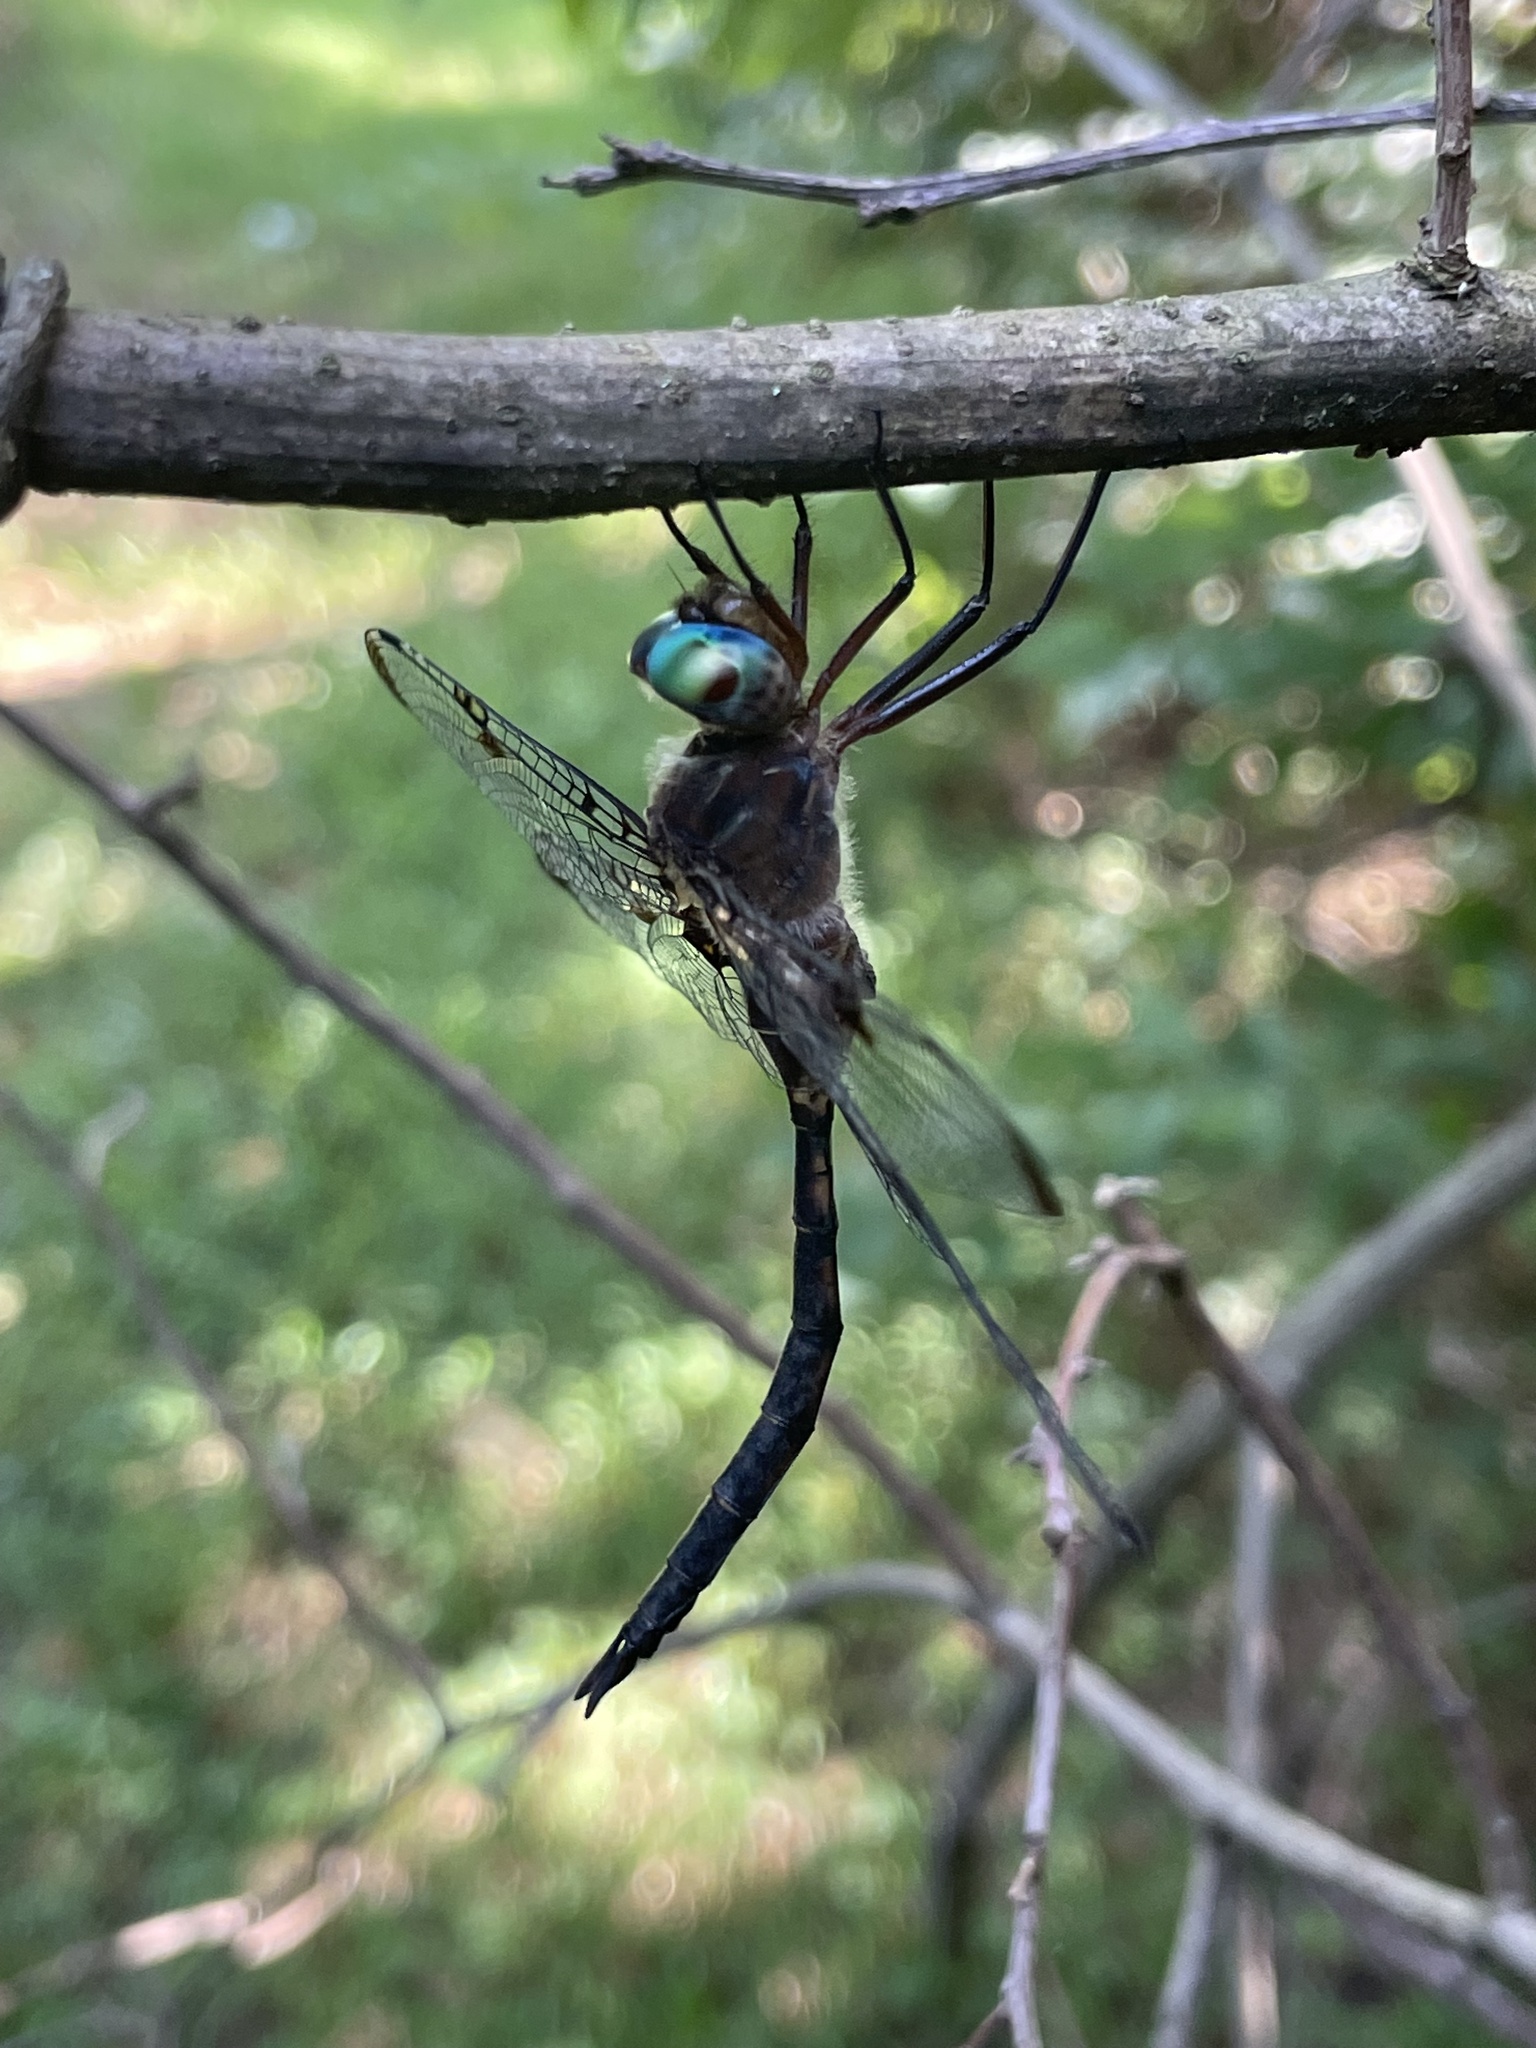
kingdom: Animalia
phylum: Arthropoda
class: Insecta
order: Odonata
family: Corduliidae
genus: Epitheca
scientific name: Epitheca princeps
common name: Prince baskettail
